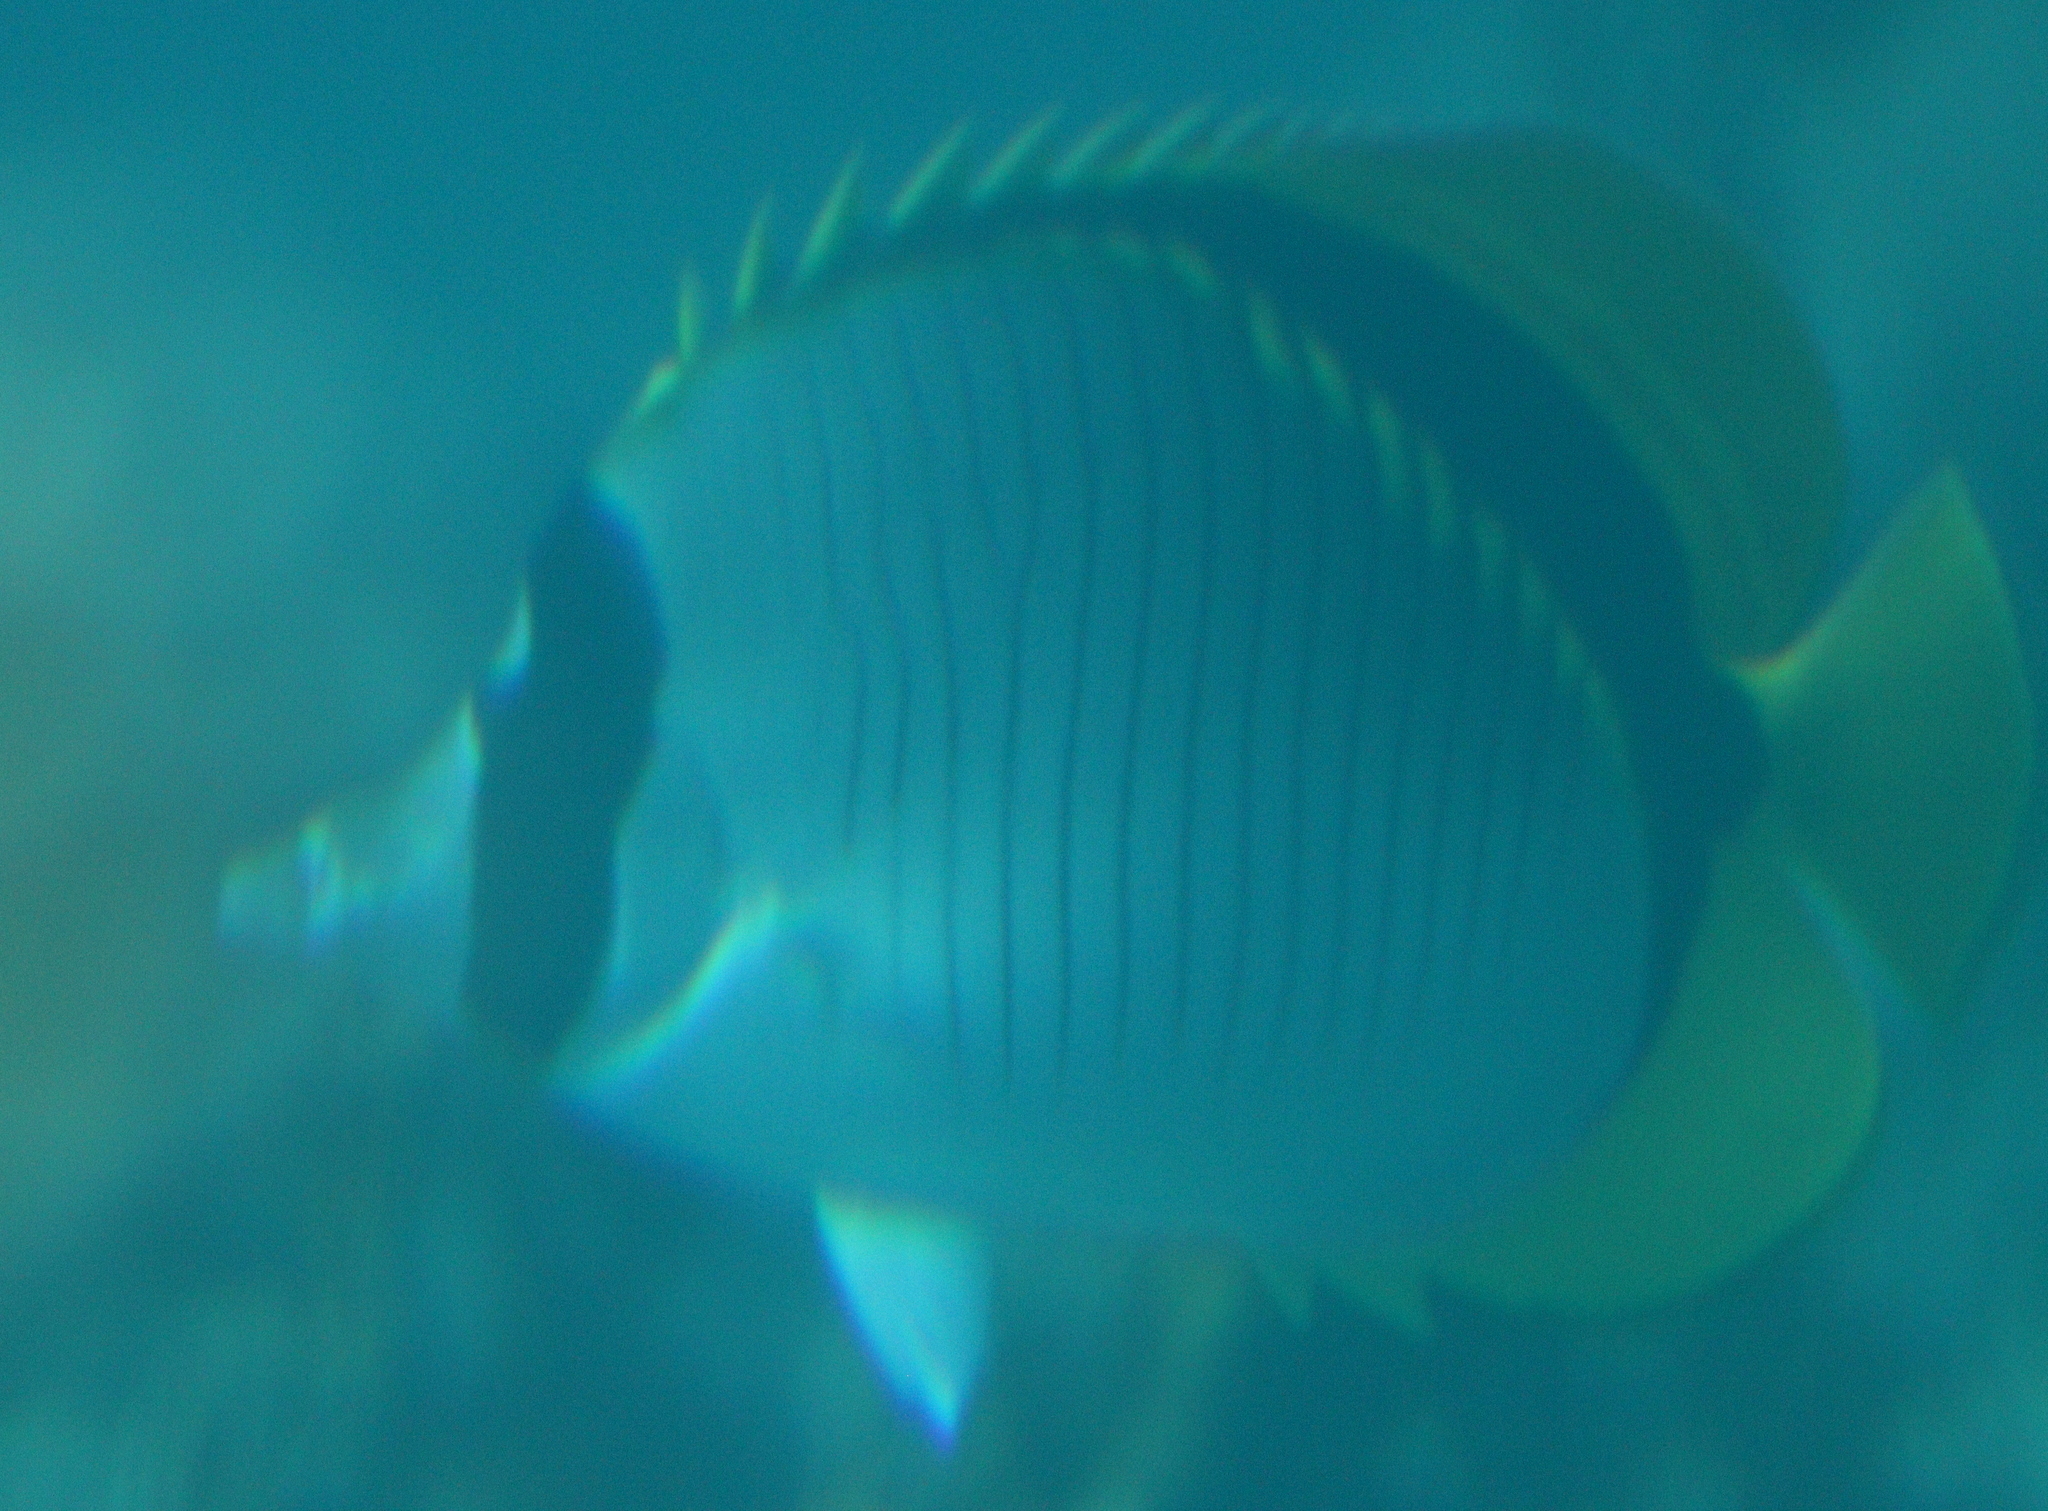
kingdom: Animalia
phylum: Chordata
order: Perciformes
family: Chaetodontidae
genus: Chaetodon
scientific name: Chaetodon lineolatus
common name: Lined butterflyfish
